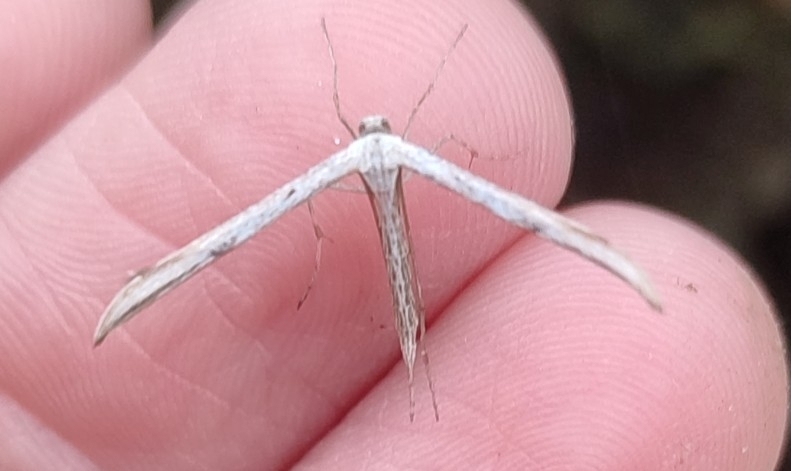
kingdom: Animalia
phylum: Arthropoda
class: Insecta
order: Lepidoptera
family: Pterophoridae
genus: Emmelina
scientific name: Emmelina monodactyla
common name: Common plume
